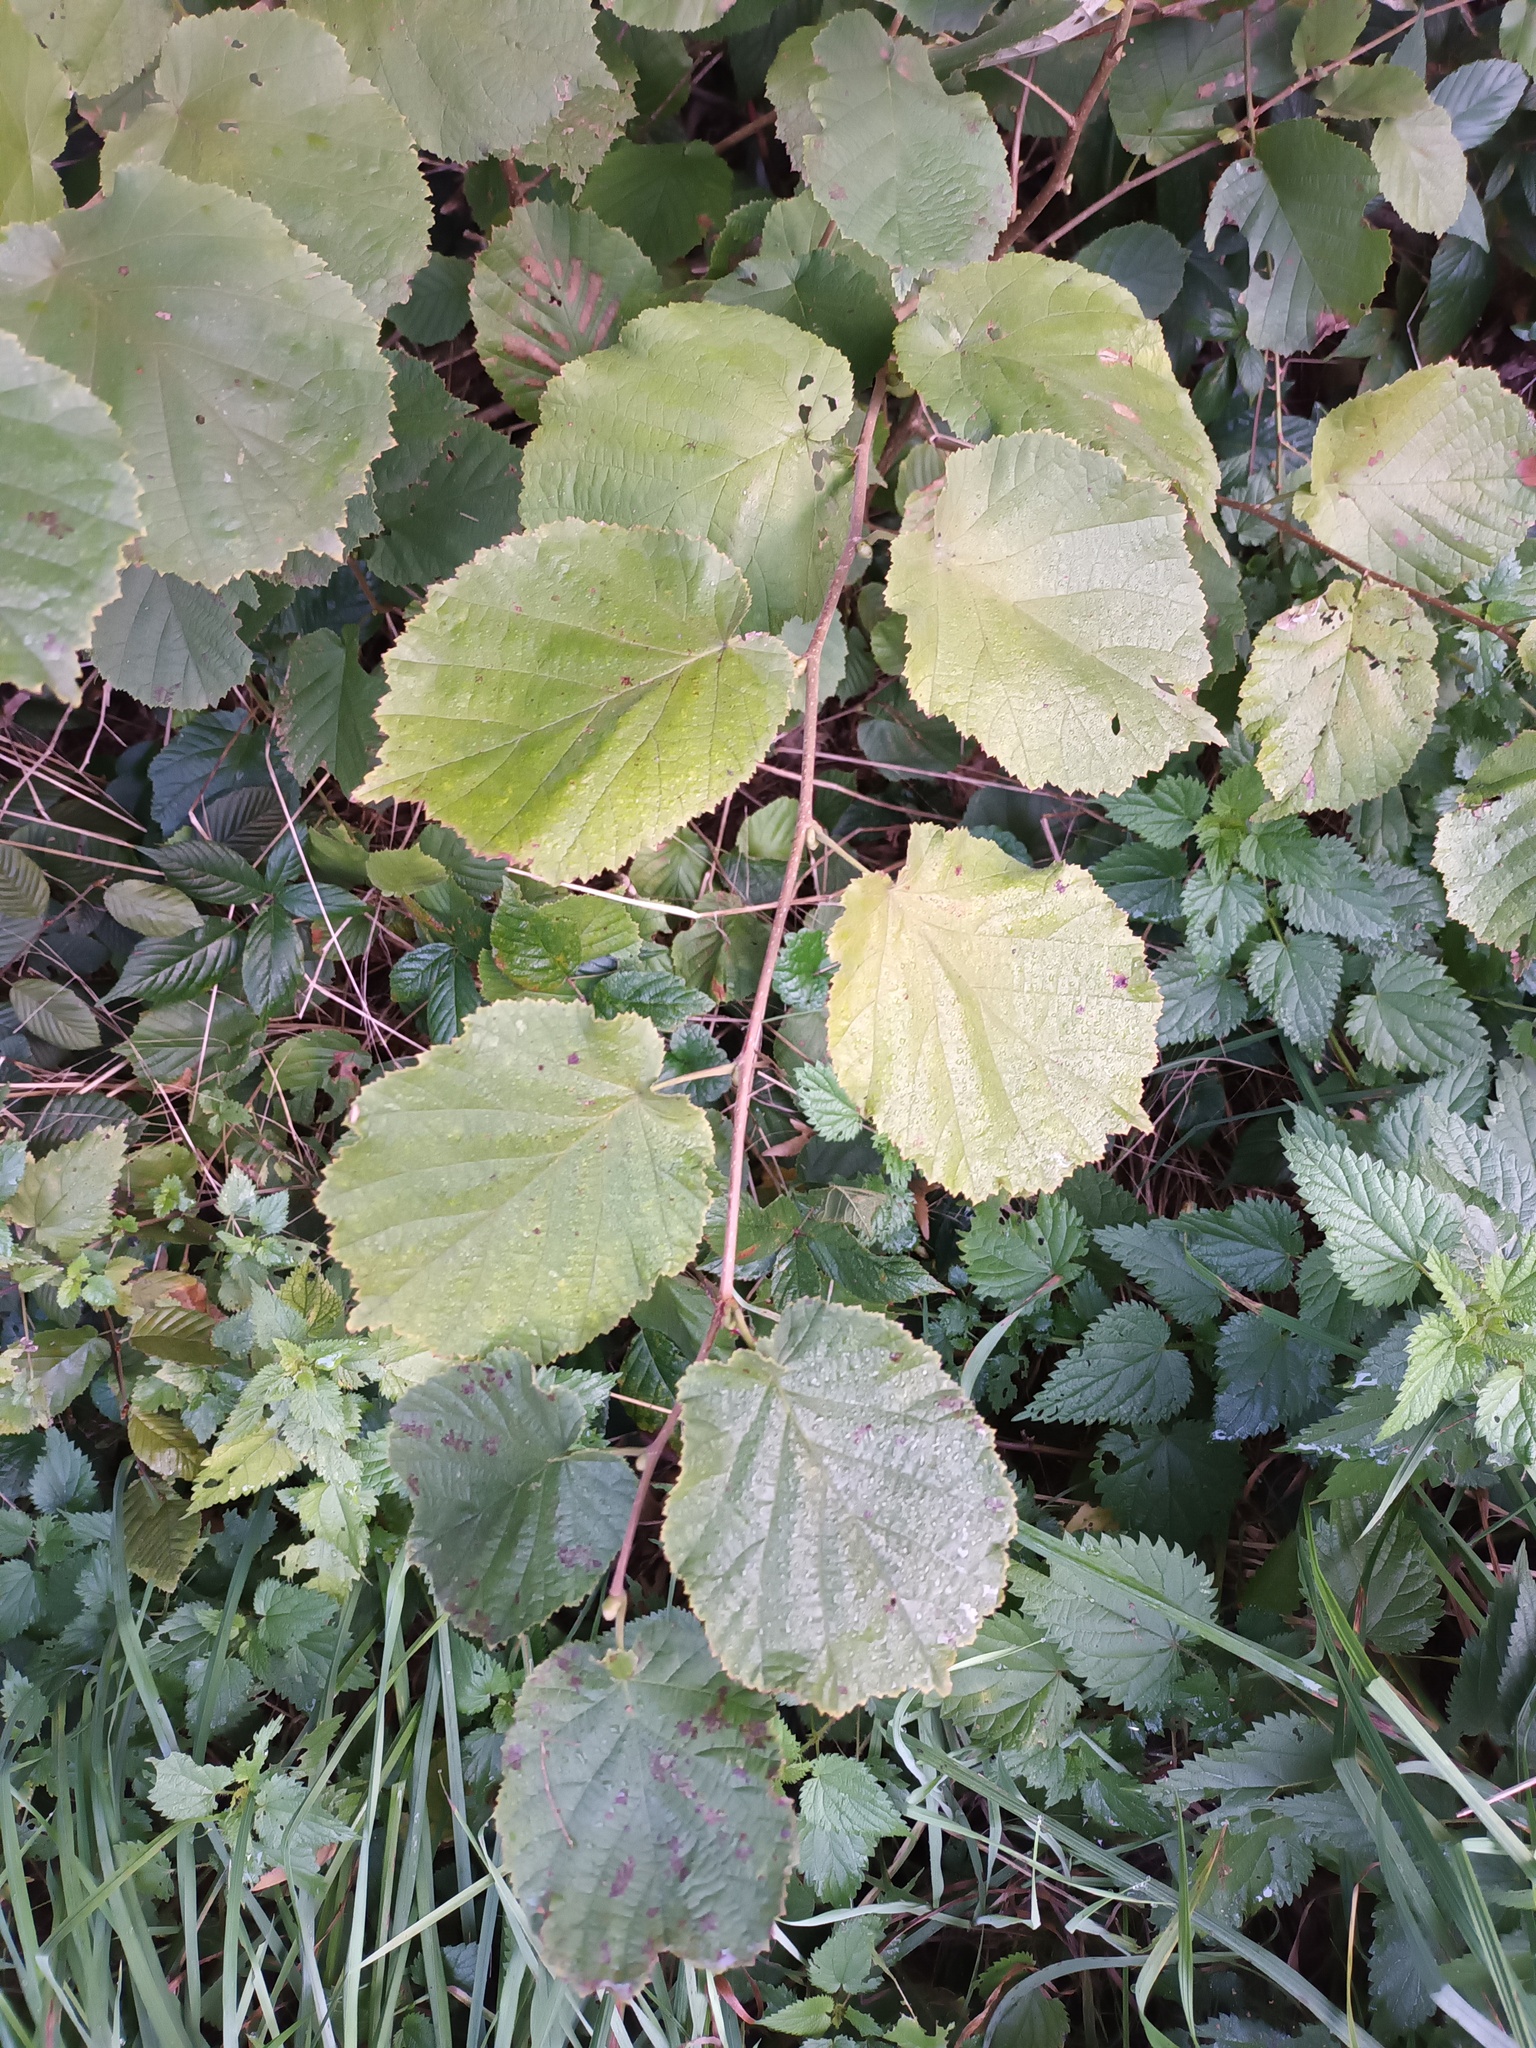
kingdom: Plantae
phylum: Tracheophyta
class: Magnoliopsida
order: Fagales
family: Betulaceae
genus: Corylus
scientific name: Corylus avellana
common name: European hazel
